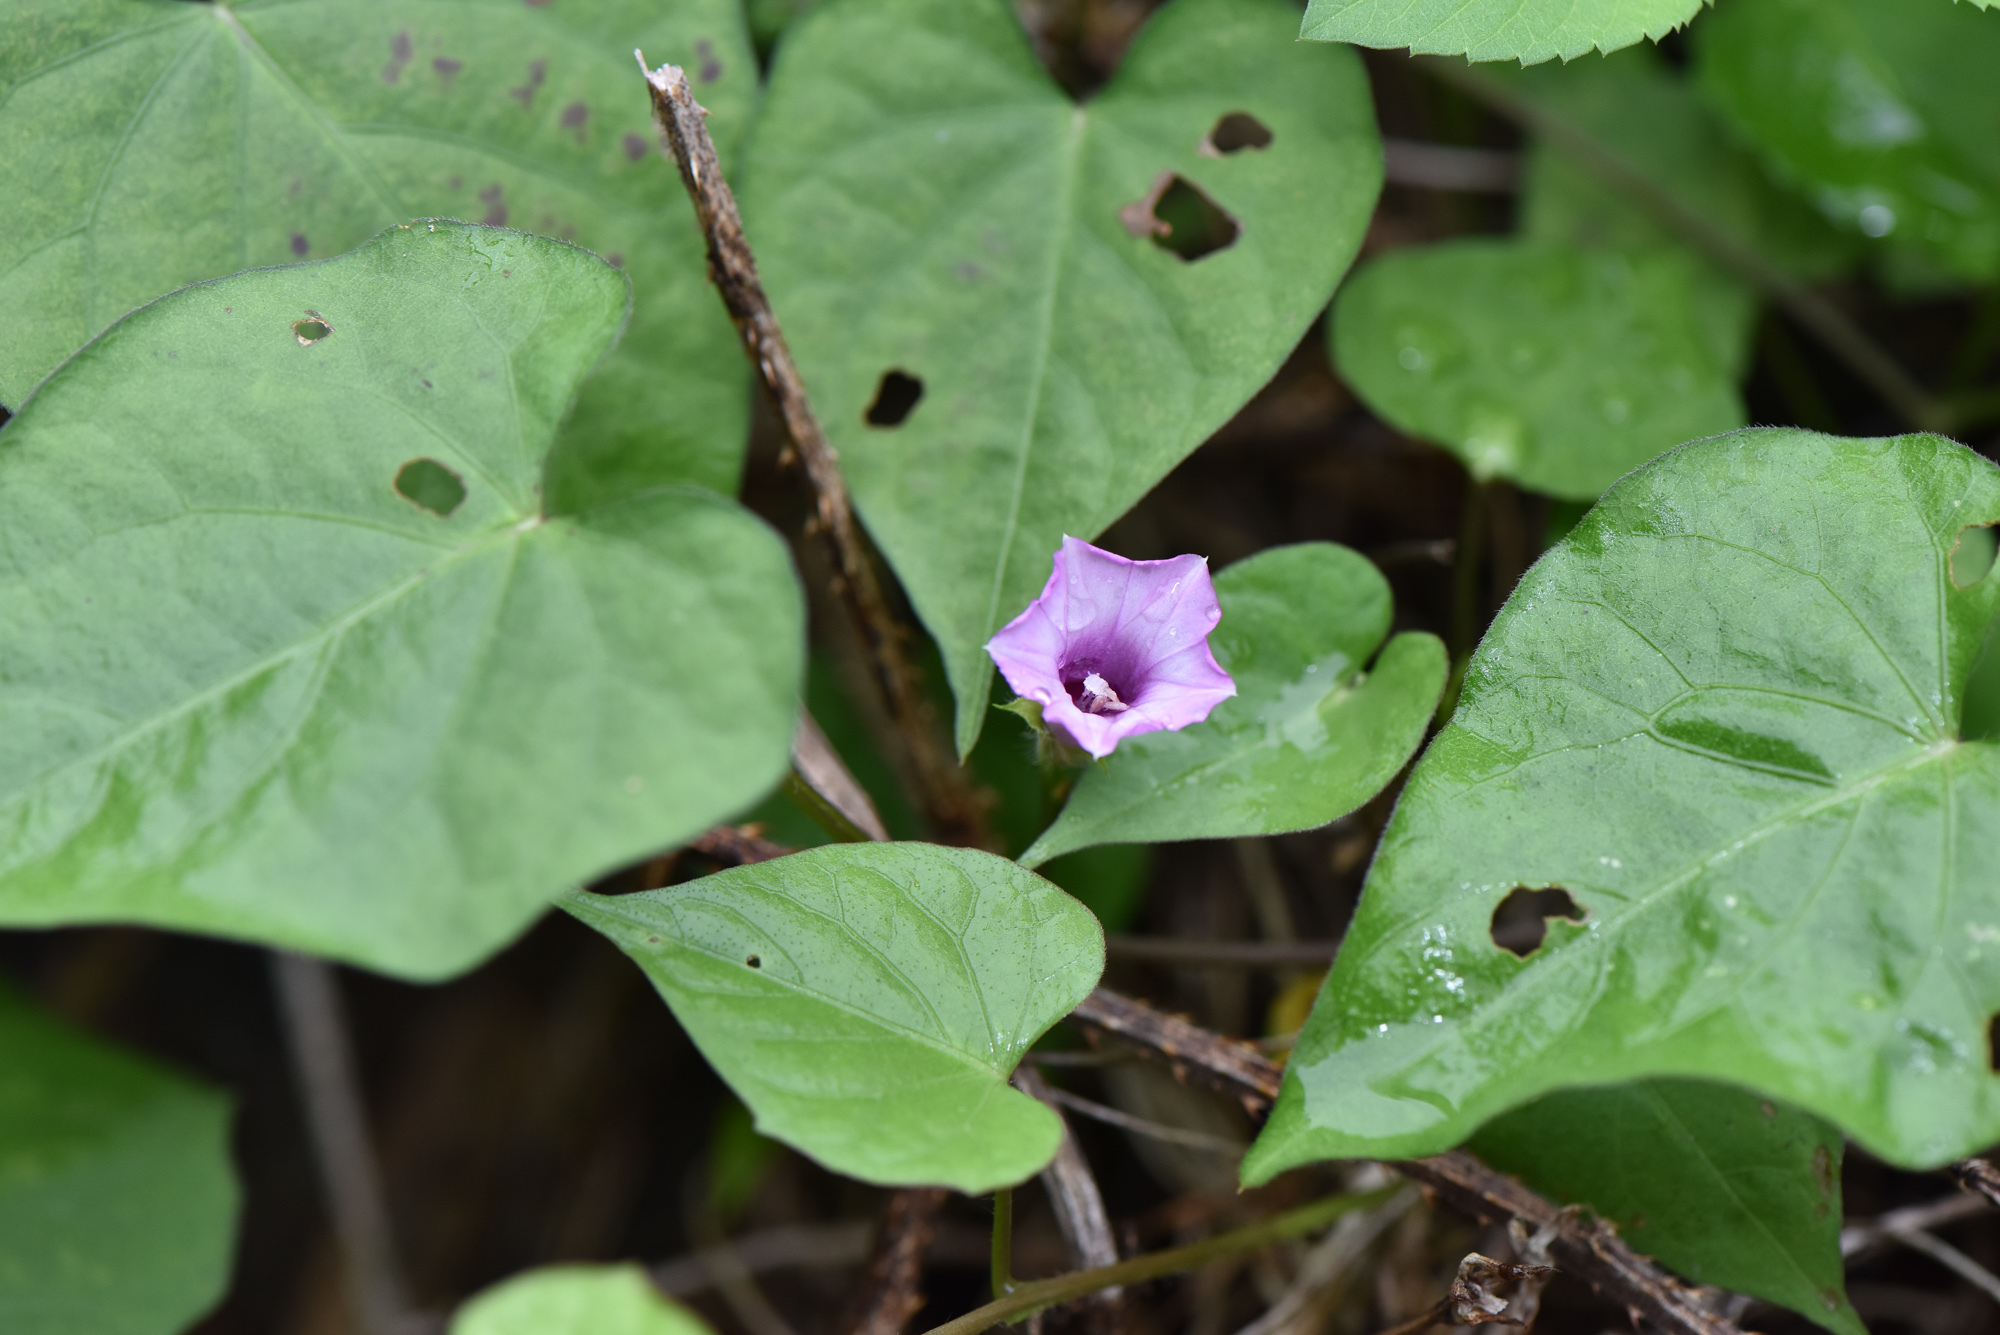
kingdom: Plantae
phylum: Tracheophyta
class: Magnoliopsida
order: Solanales
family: Convolvulaceae
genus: Ipomoea
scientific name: Ipomoea triloba
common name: Little-bell
